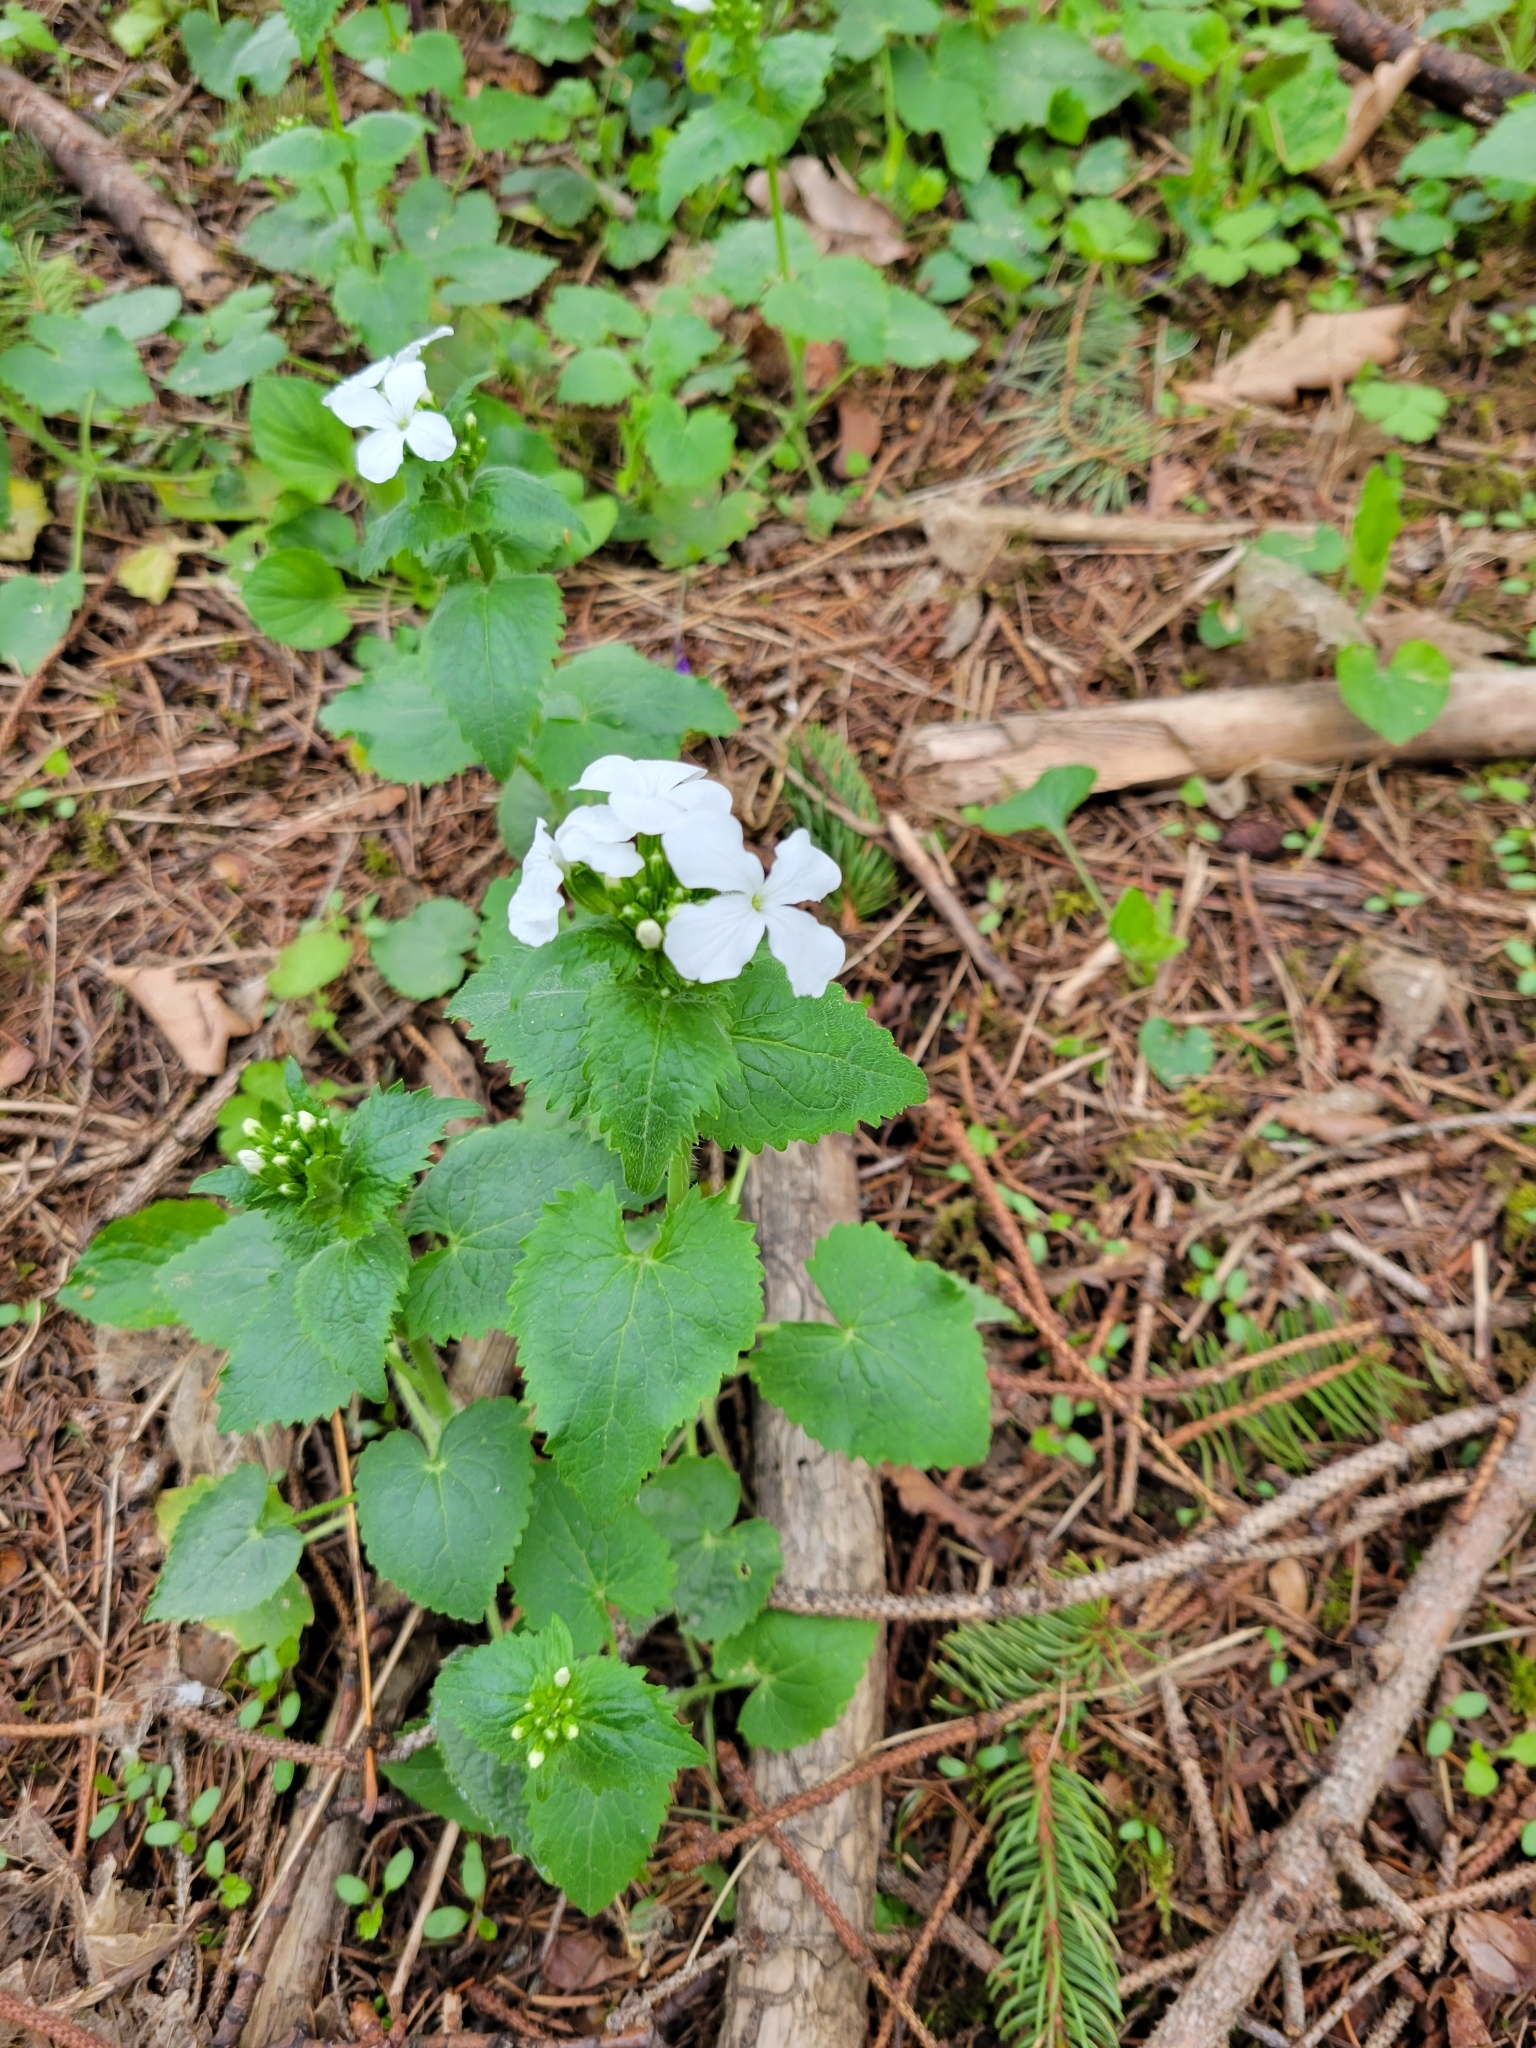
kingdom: Plantae
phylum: Tracheophyta
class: Magnoliopsida
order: Brassicales
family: Brassicaceae
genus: Lunaria
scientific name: Lunaria annua
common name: Honesty
